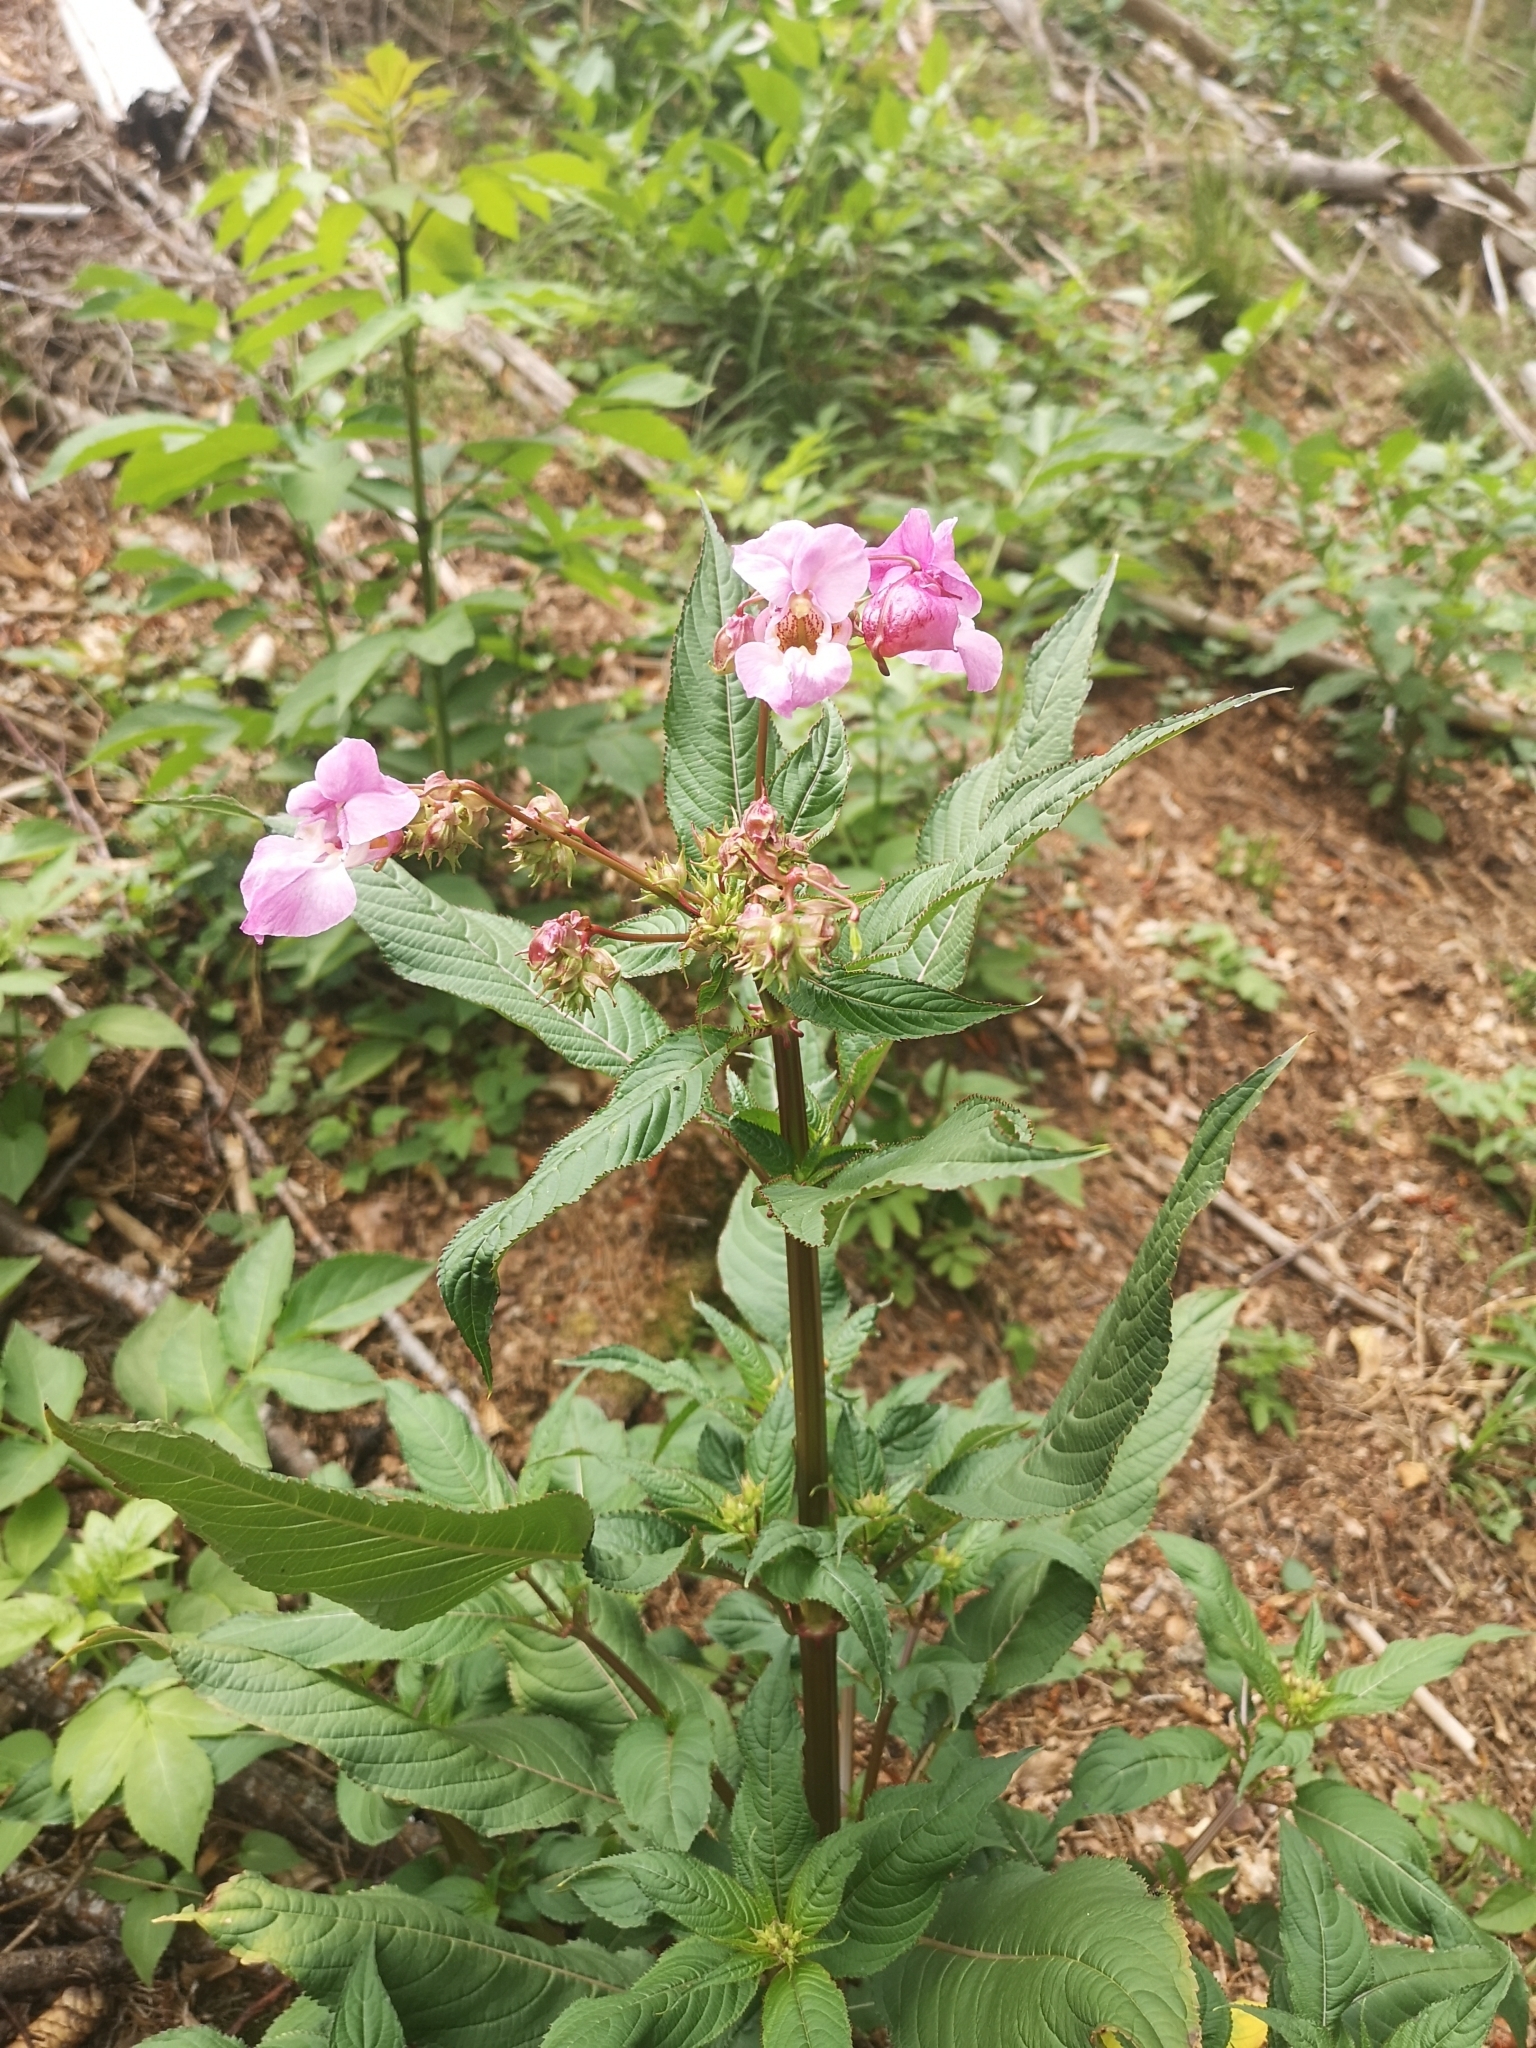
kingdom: Plantae
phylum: Tracheophyta
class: Magnoliopsida
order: Ericales
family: Balsaminaceae
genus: Impatiens
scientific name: Impatiens glandulifera
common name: Himalayan balsam
